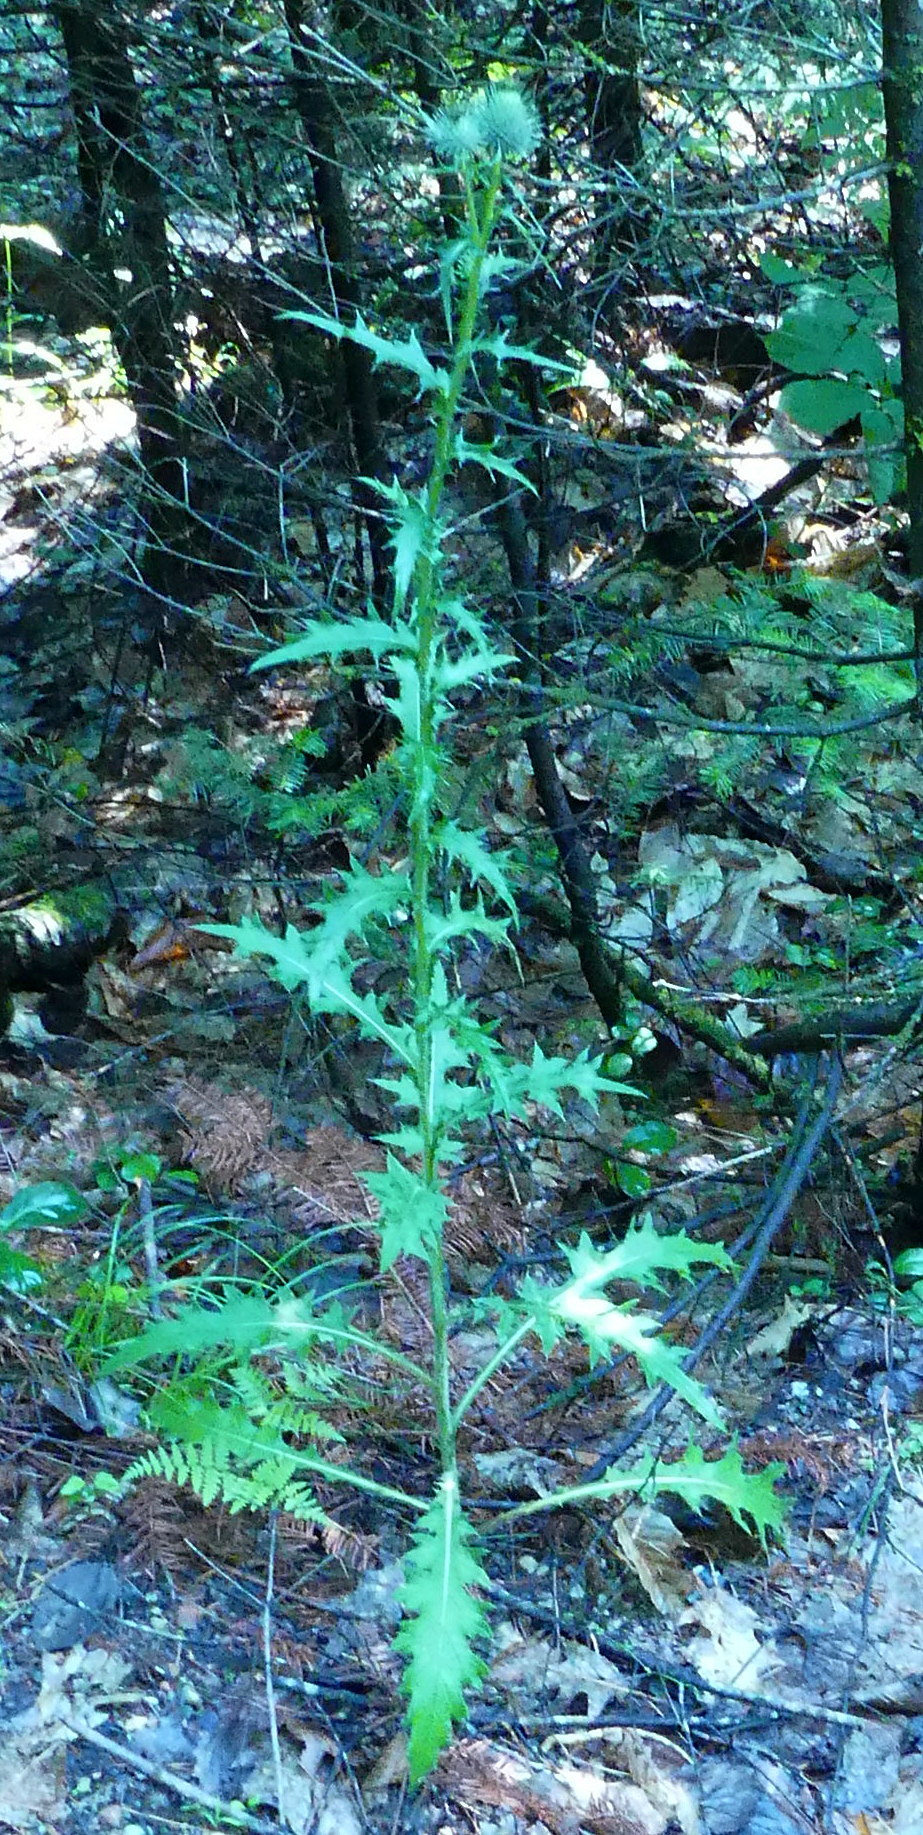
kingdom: Plantae
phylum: Tracheophyta
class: Magnoliopsida
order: Asterales
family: Asteraceae
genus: Cirsium
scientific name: Cirsium vulgare
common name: Bull thistle
